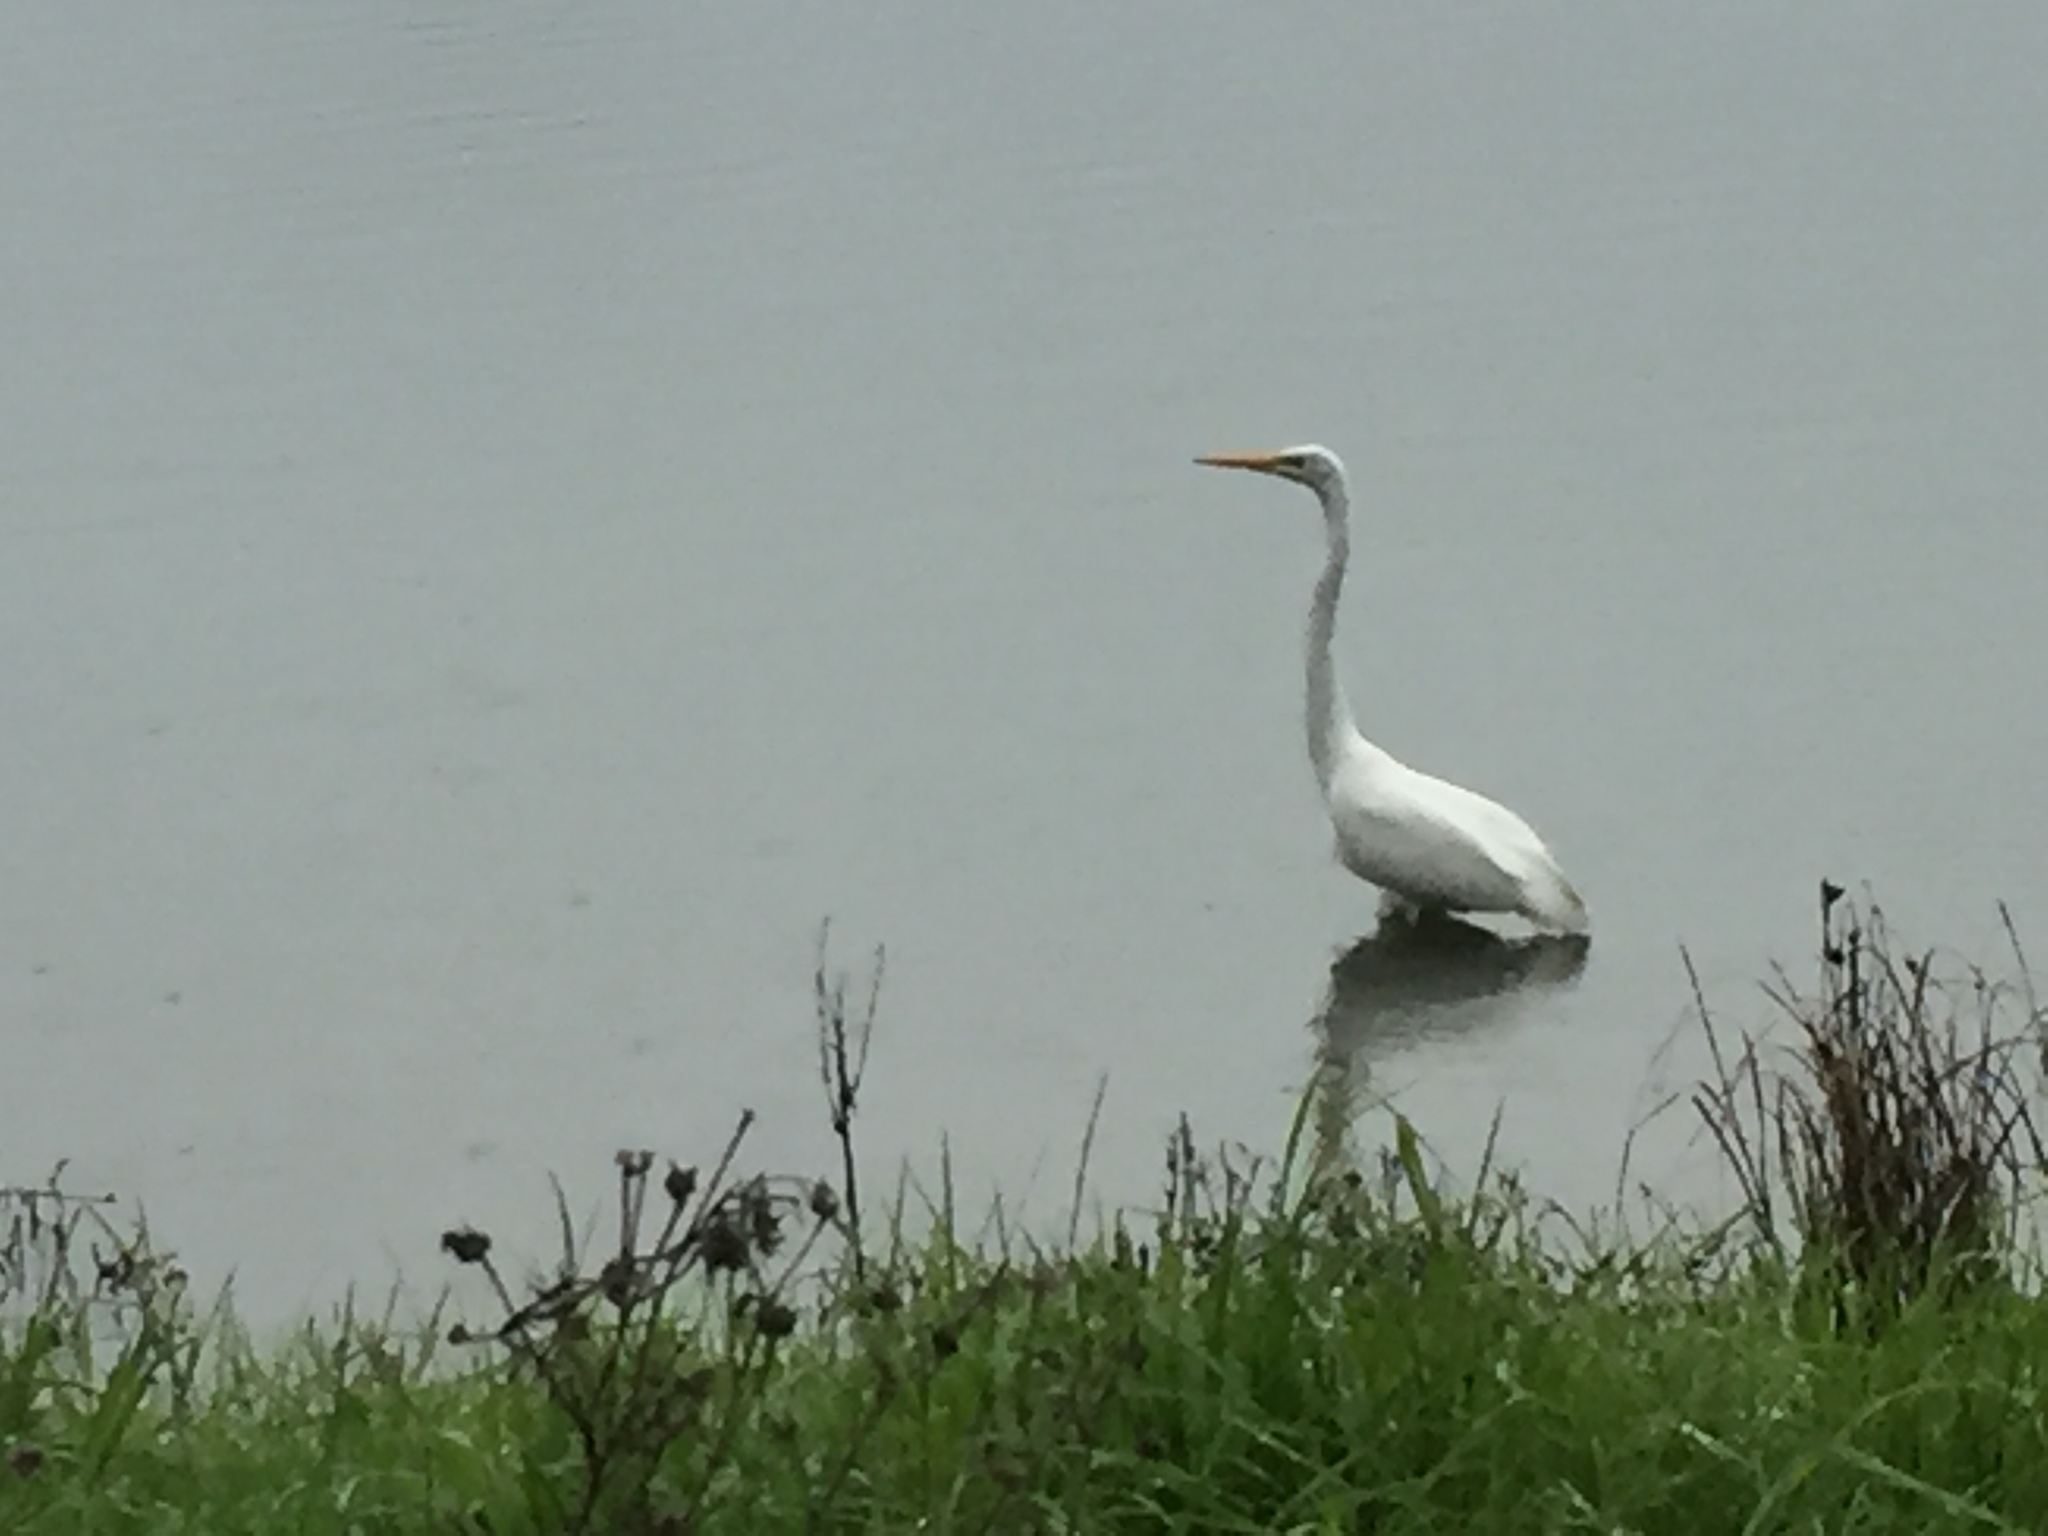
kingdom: Animalia
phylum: Chordata
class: Aves
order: Pelecaniformes
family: Ardeidae
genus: Ardea
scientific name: Ardea alba
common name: Great egret
